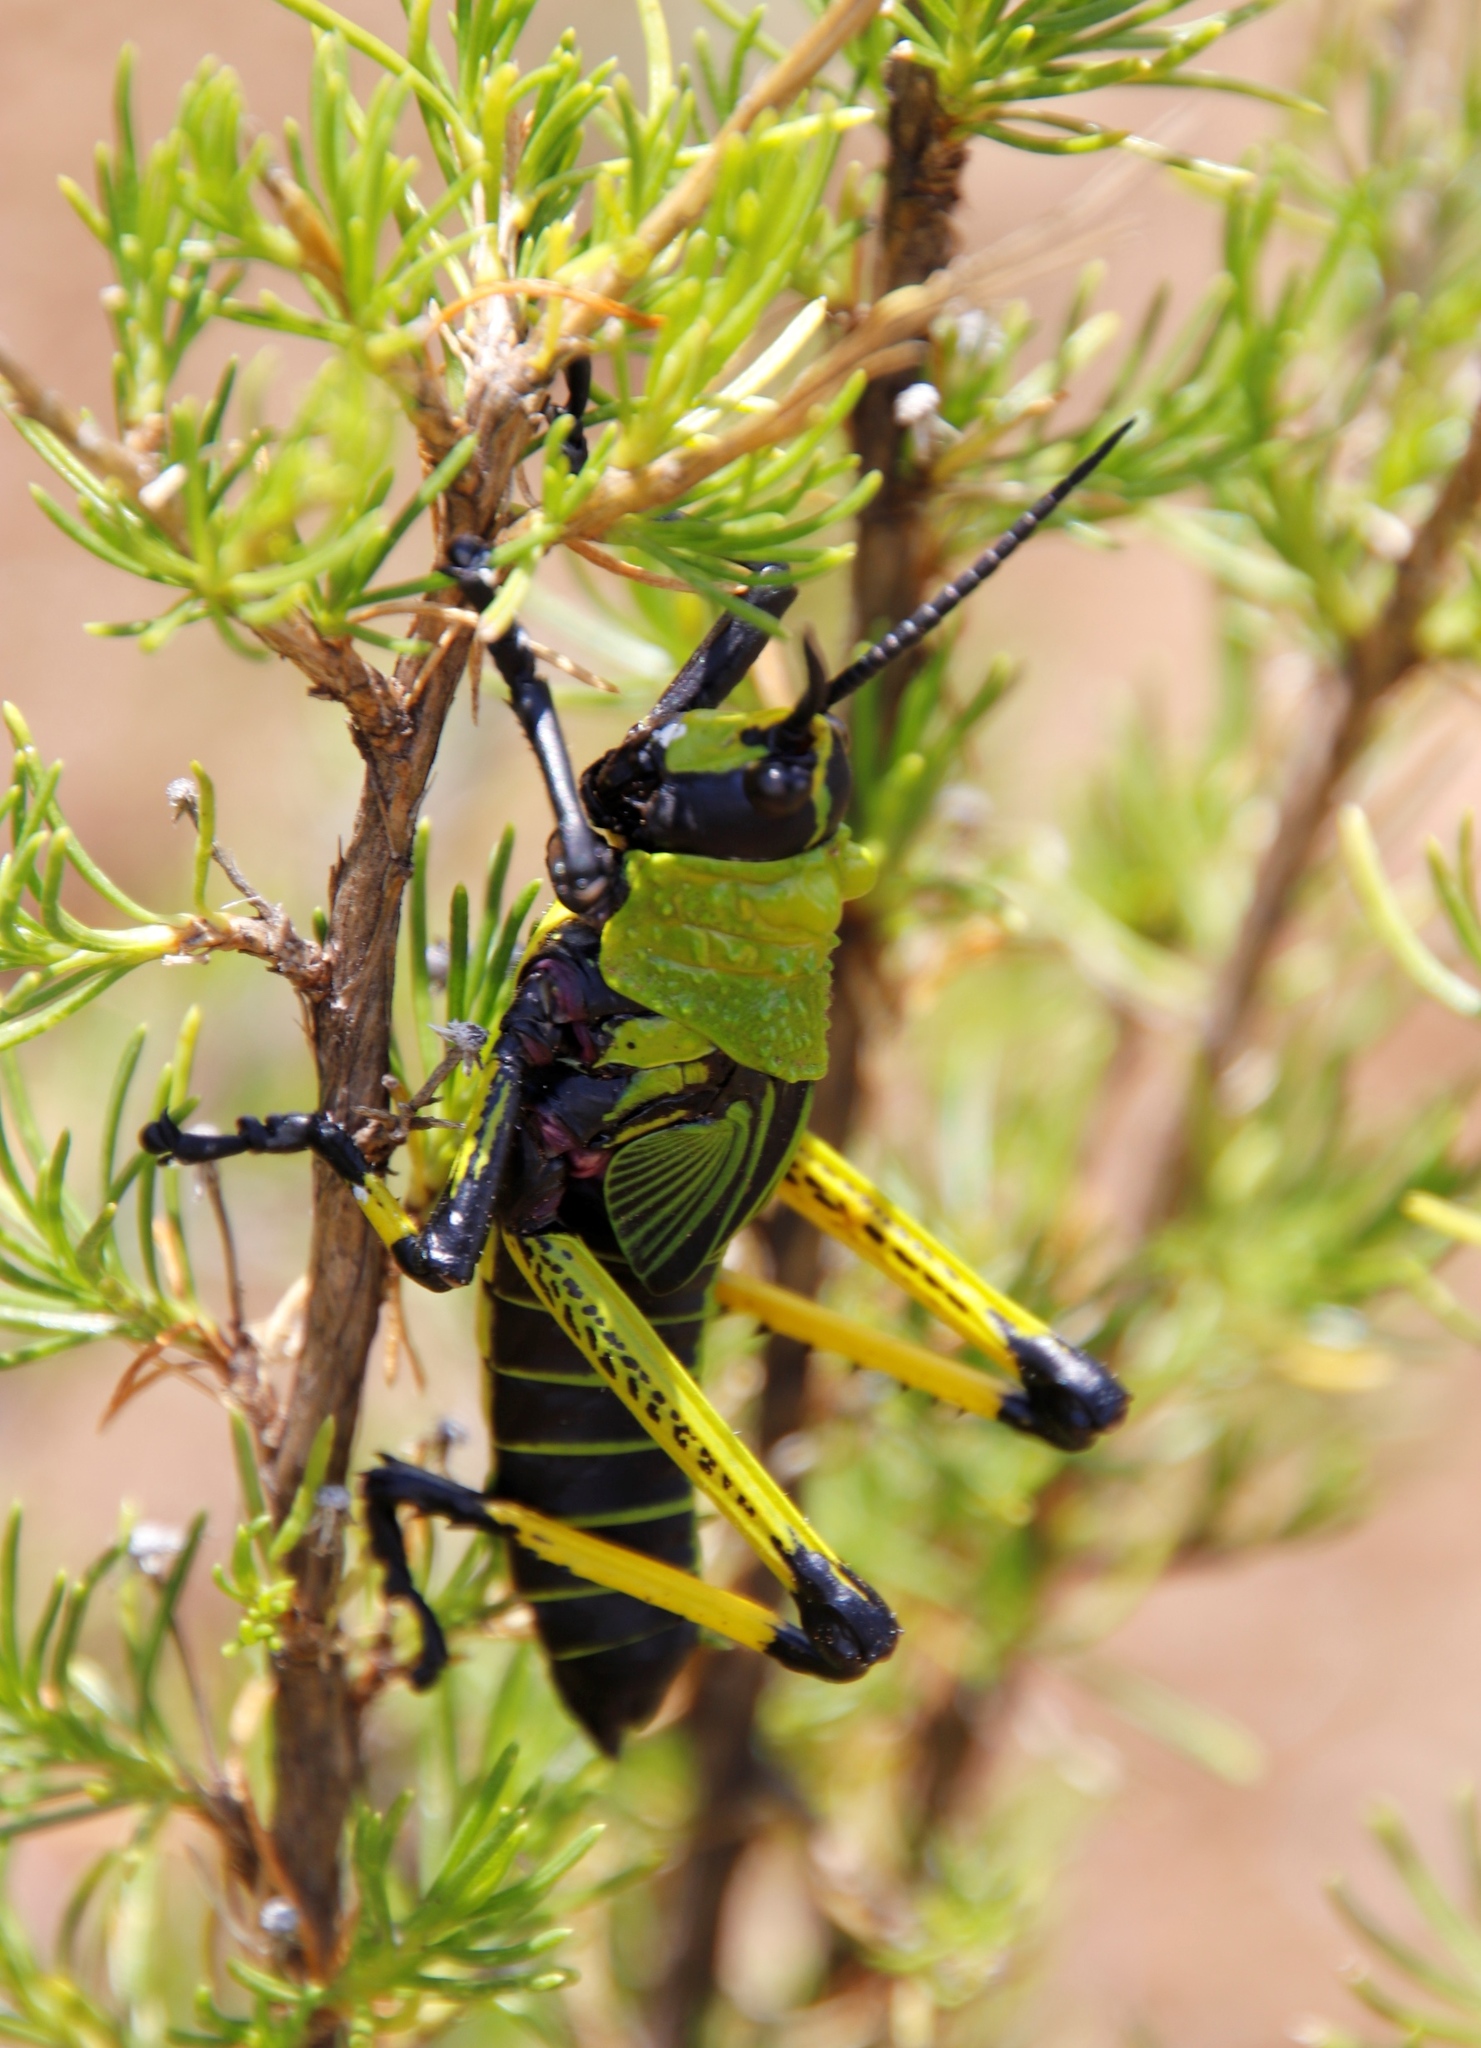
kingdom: Animalia
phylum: Arthropoda
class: Insecta
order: Orthoptera
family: Pyrgomorphidae
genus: Phymateus
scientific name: Phymateus leprosus
